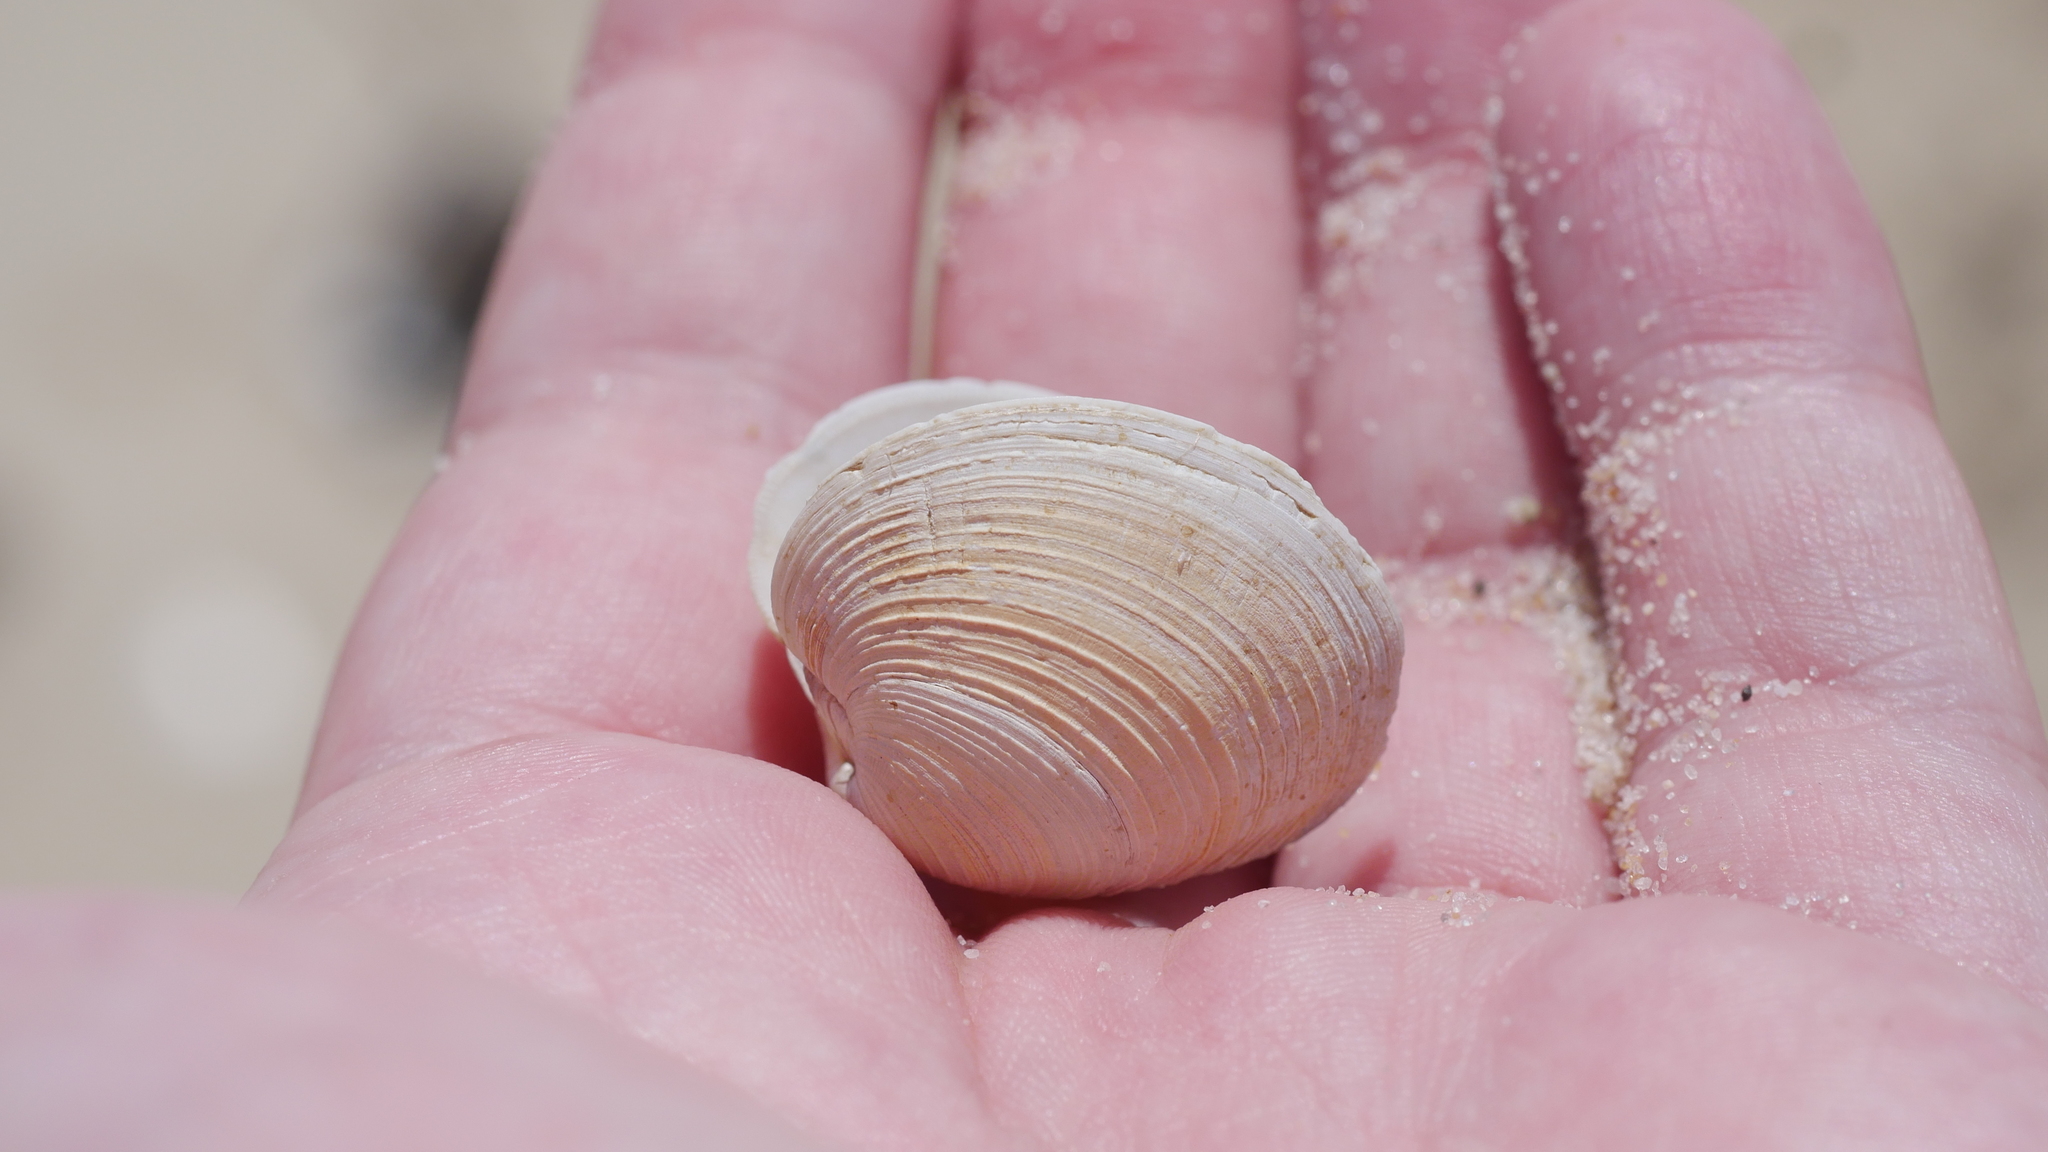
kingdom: Animalia
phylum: Mollusca
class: Bivalvia
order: Venerida
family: Veneridae
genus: Mercenaria
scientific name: Mercenaria mercenaria
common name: American hard-shelled clam
